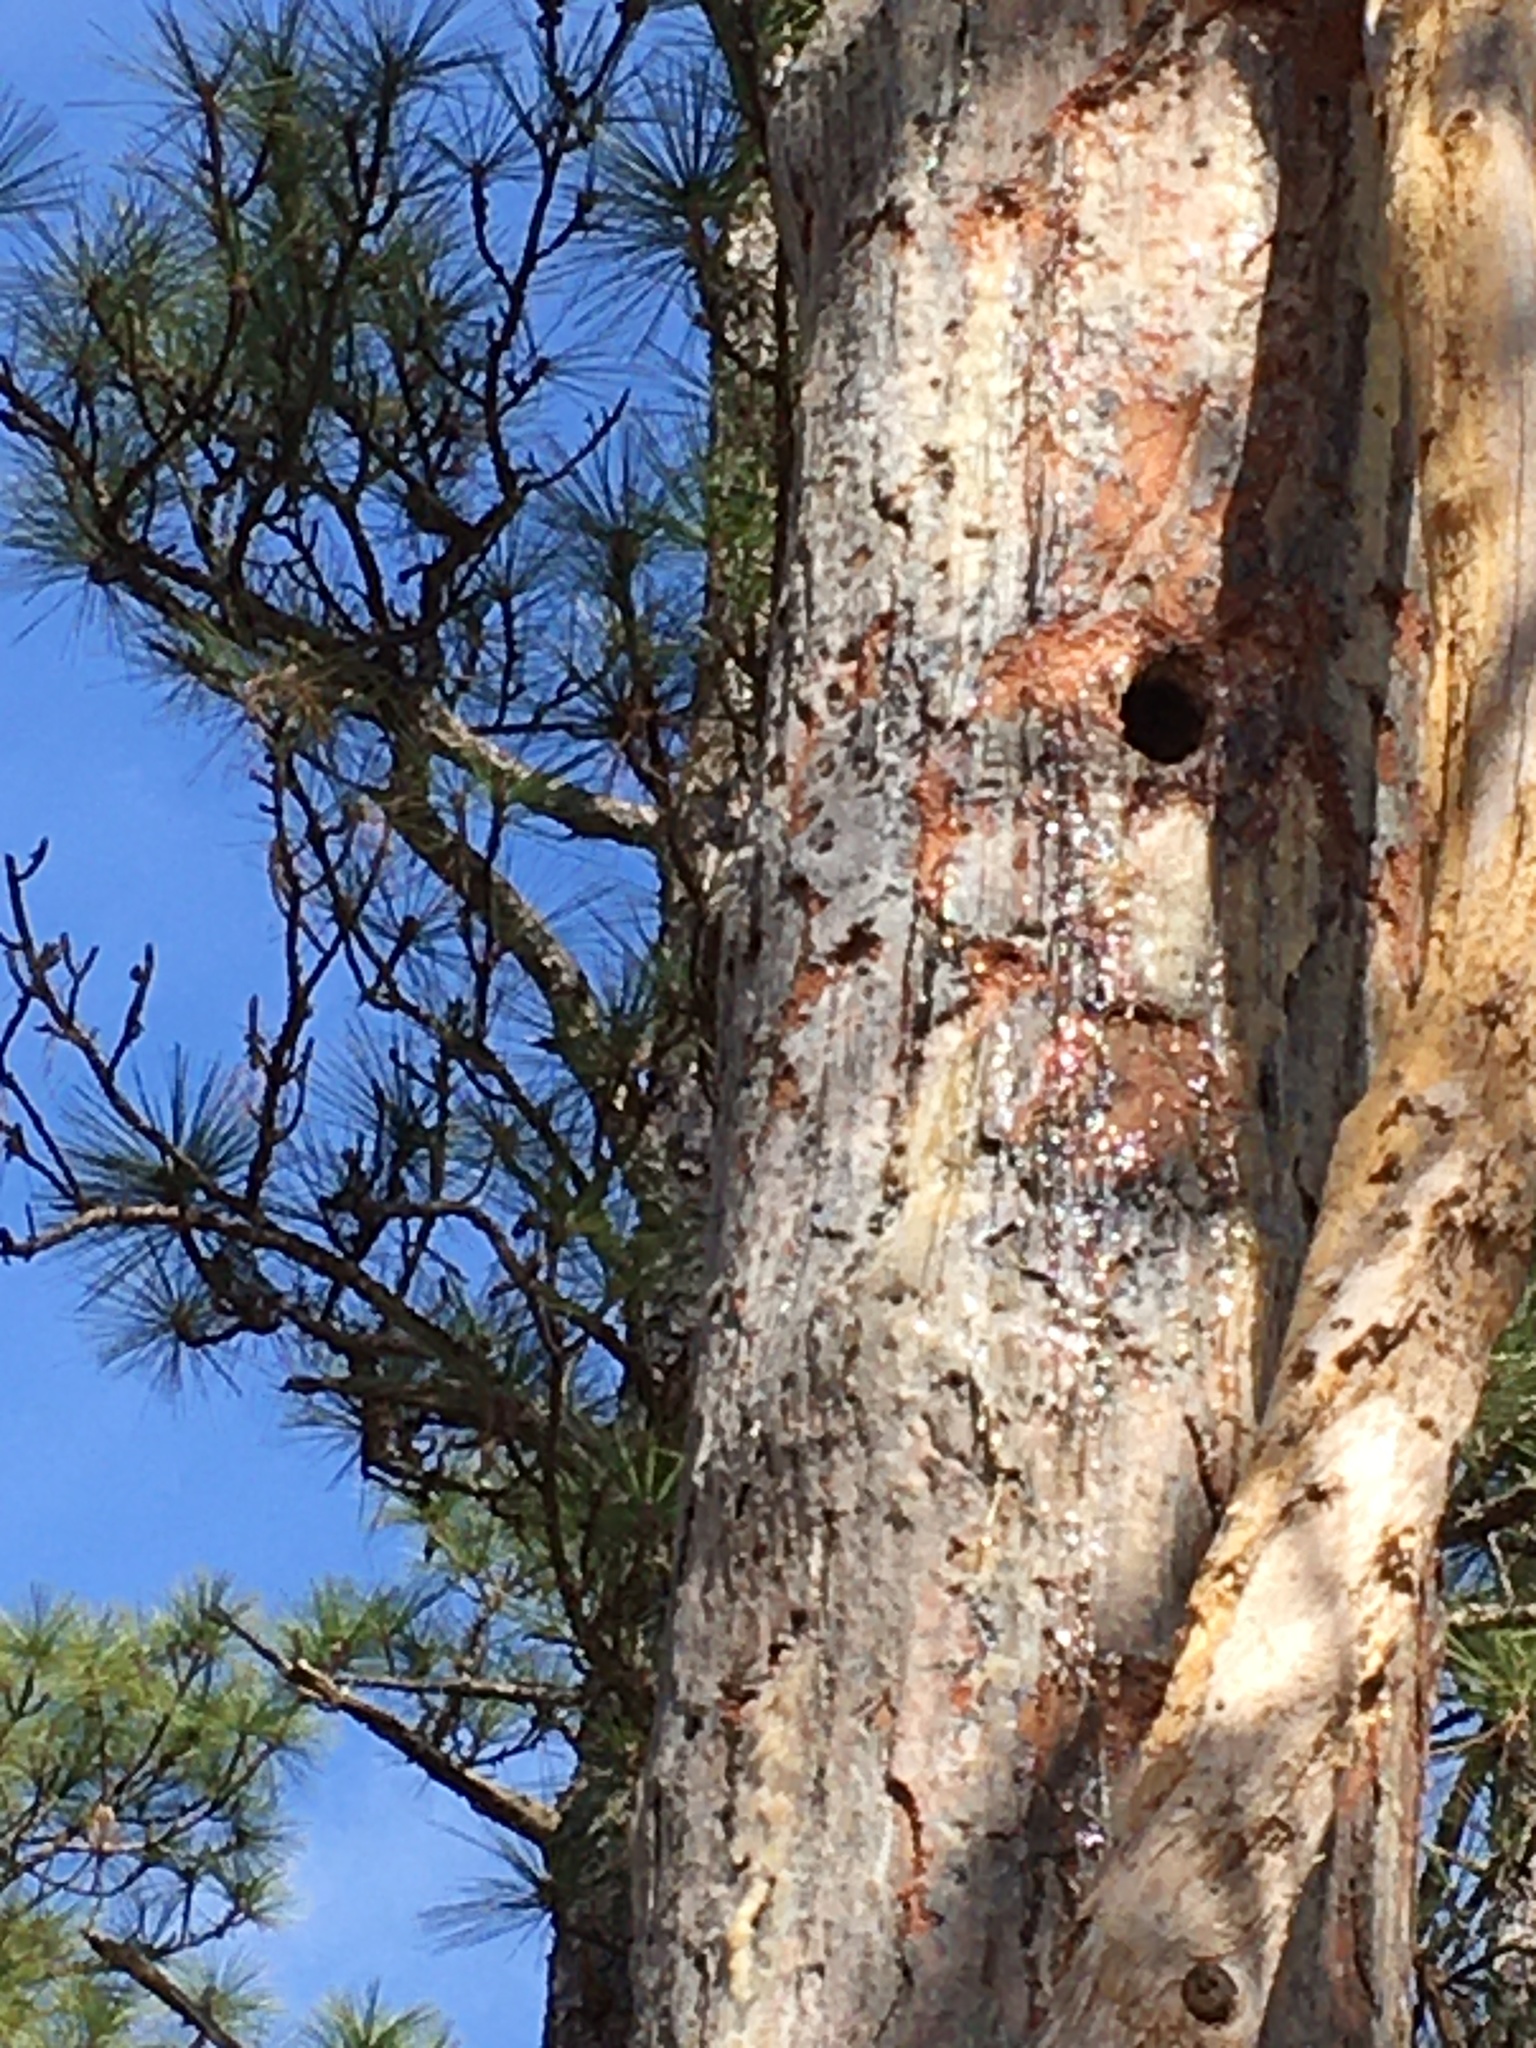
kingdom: Animalia
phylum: Chordata
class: Aves
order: Piciformes
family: Picidae
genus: Leuconotopicus
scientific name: Leuconotopicus borealis
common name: Red-cockaded woodpecker
